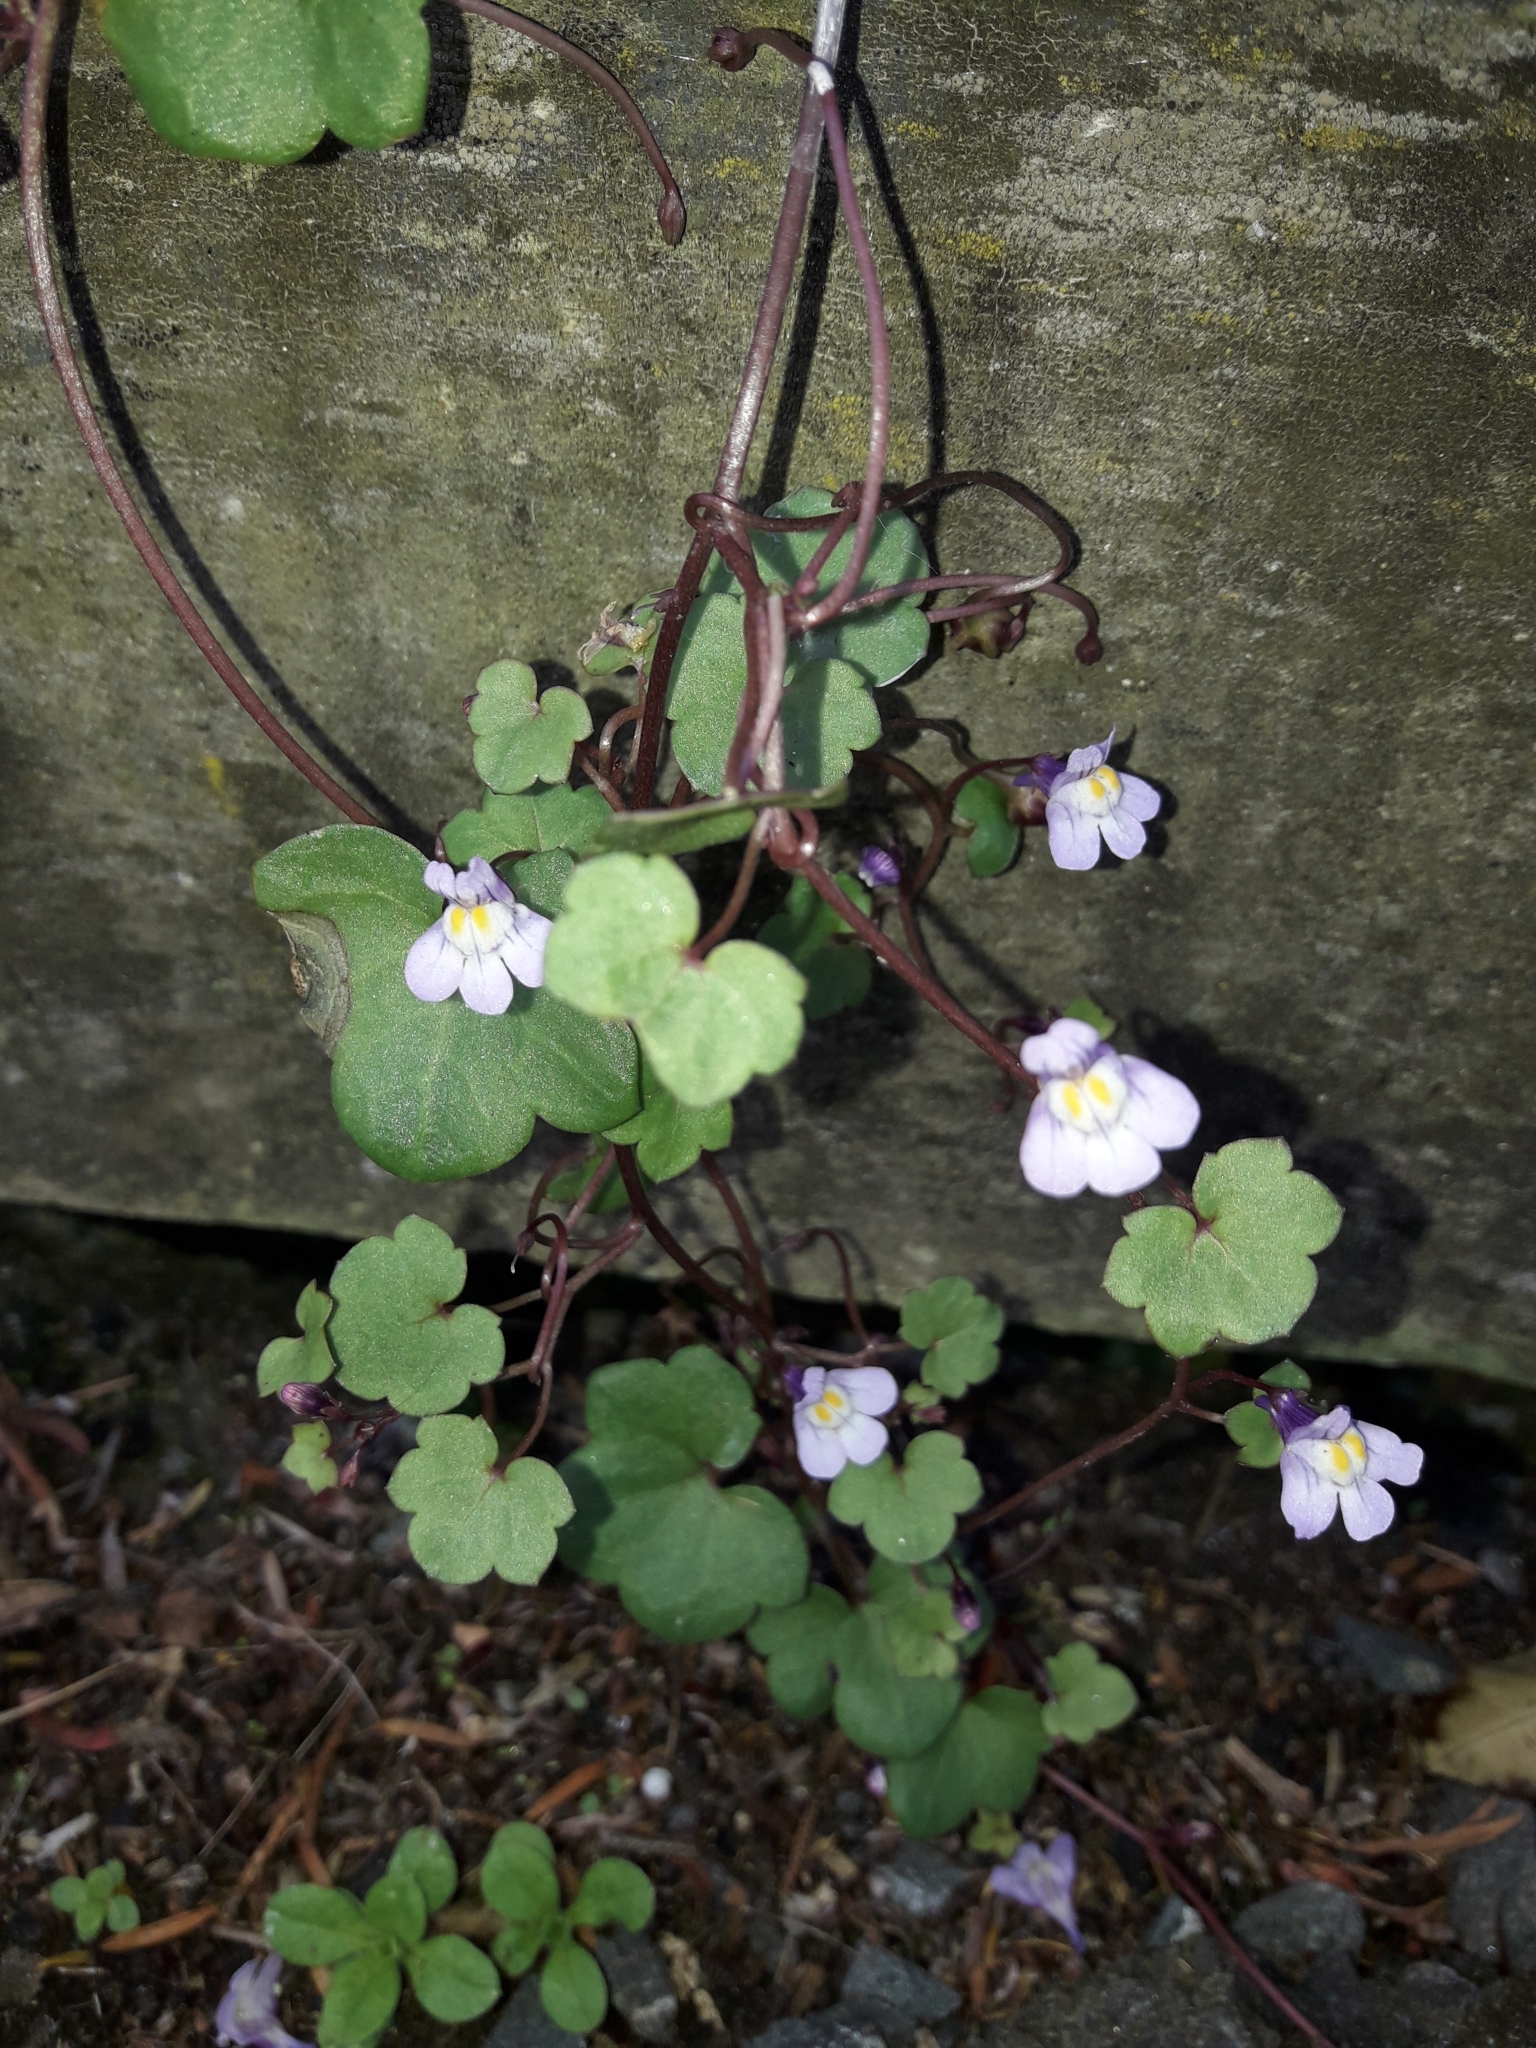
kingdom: Plantae
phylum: Tracheophyta
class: Magnoliopsida
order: Lamiales
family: Plantaginaceae
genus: Cymbalaria
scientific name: Cymbalaria muralis
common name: Ivy-leaved toadflax
